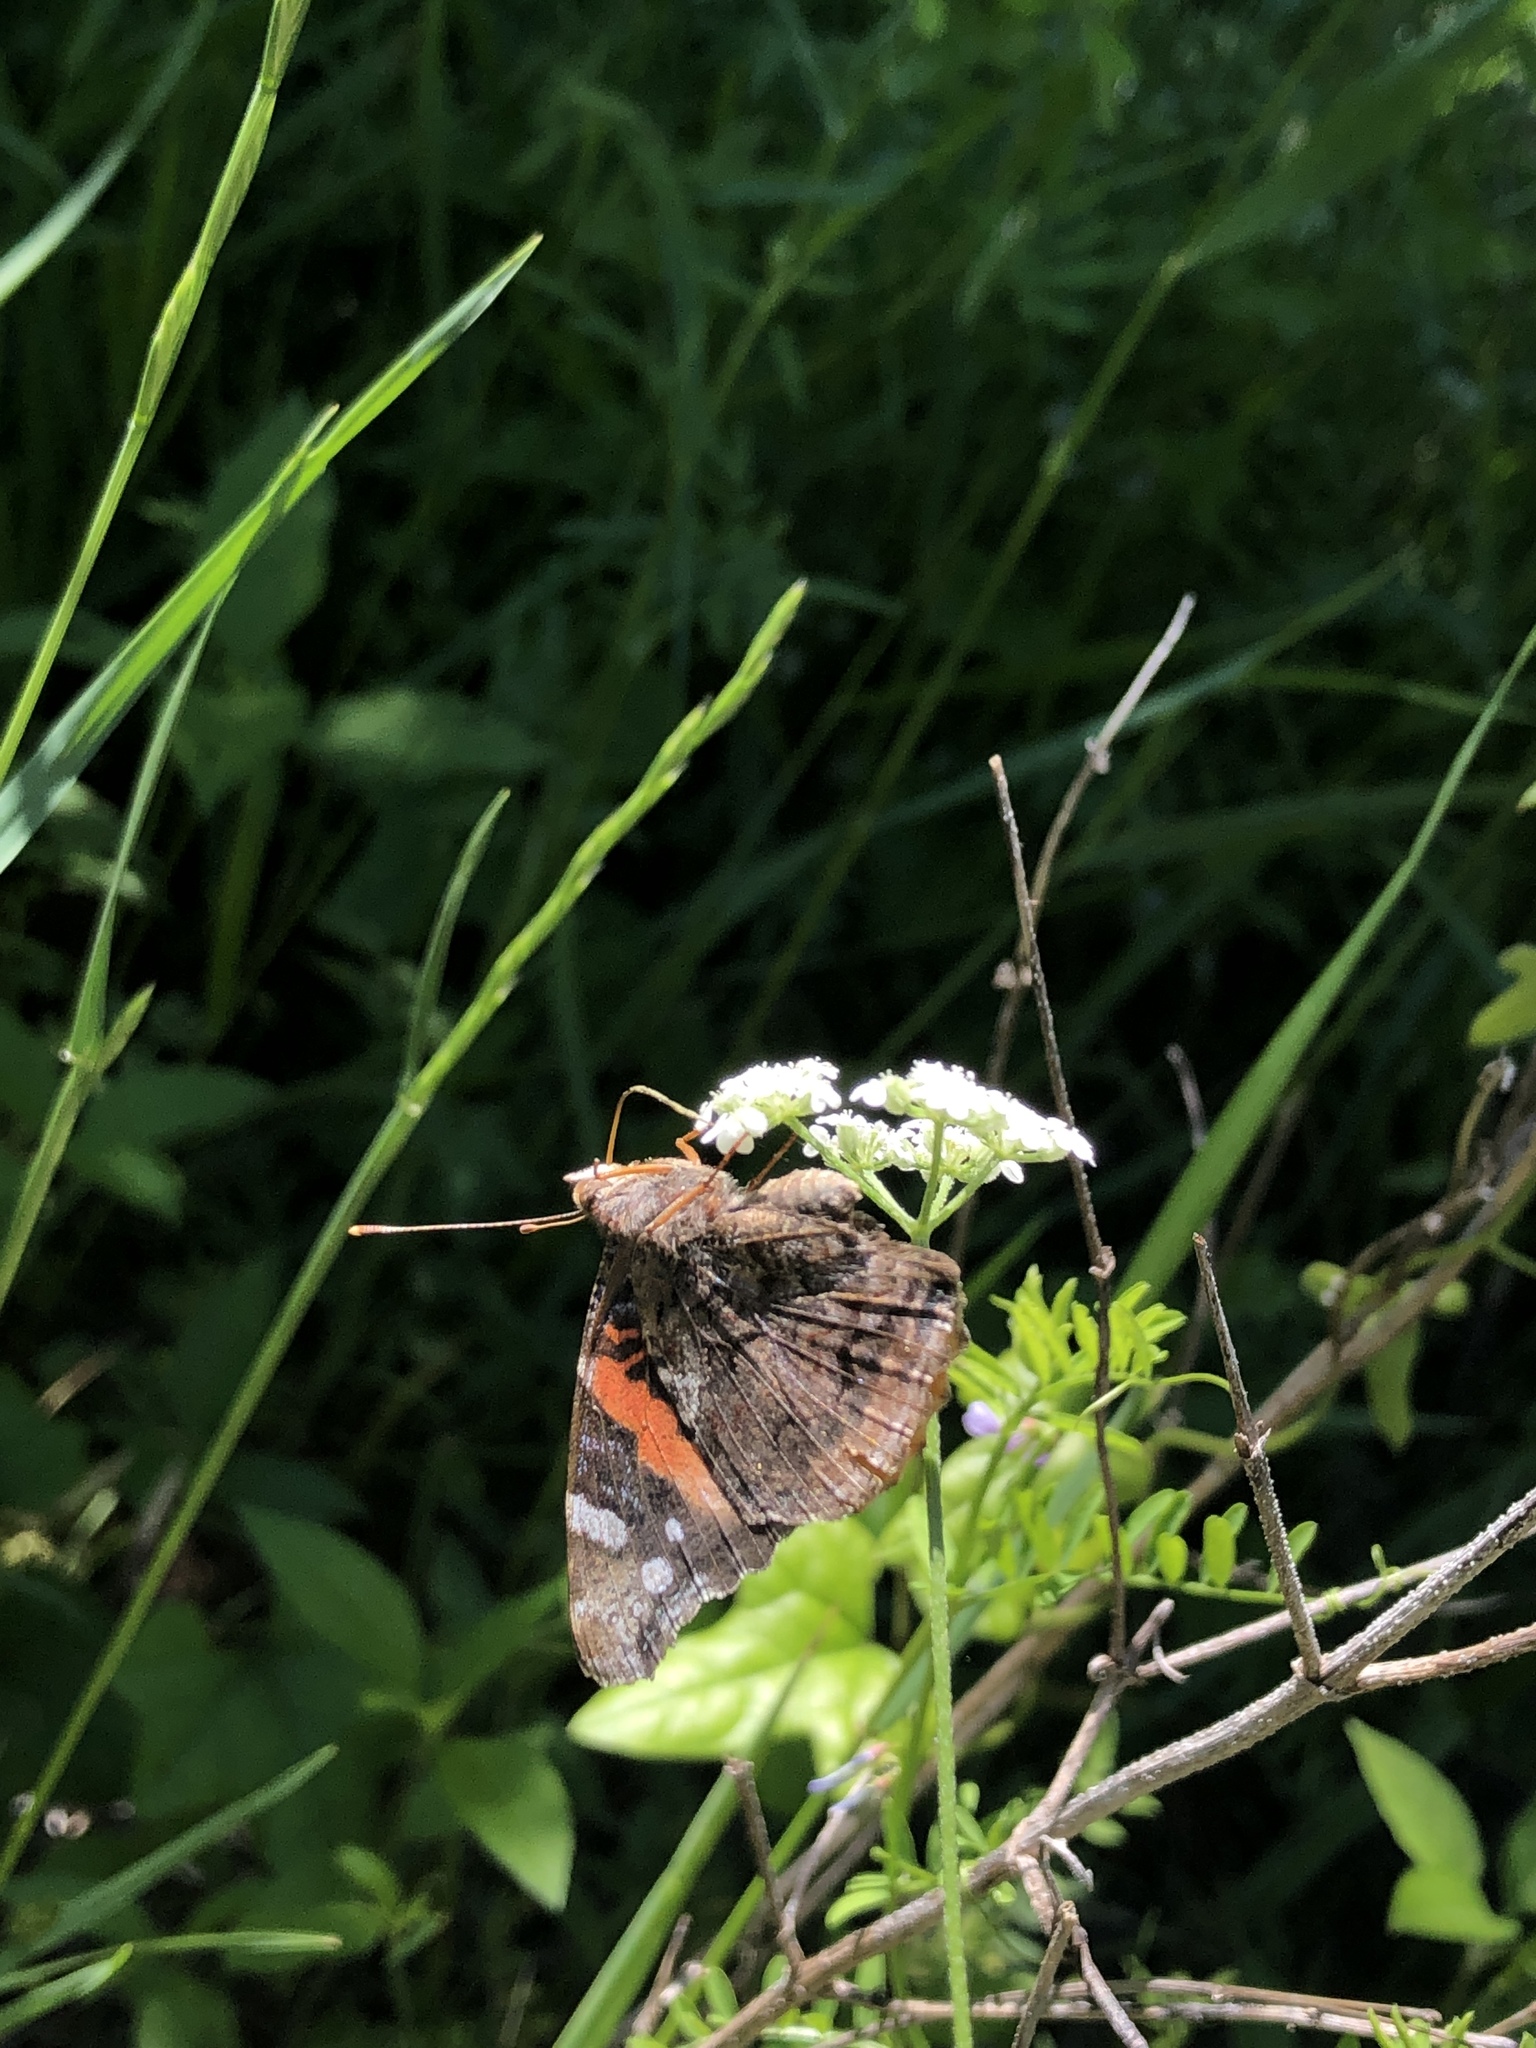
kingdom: Animalia
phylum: Arthropoda
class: Insecta
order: Lepidoptera
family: Nymphalidae
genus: Vanessa
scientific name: Vanessa atalanta
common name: Red admiral
